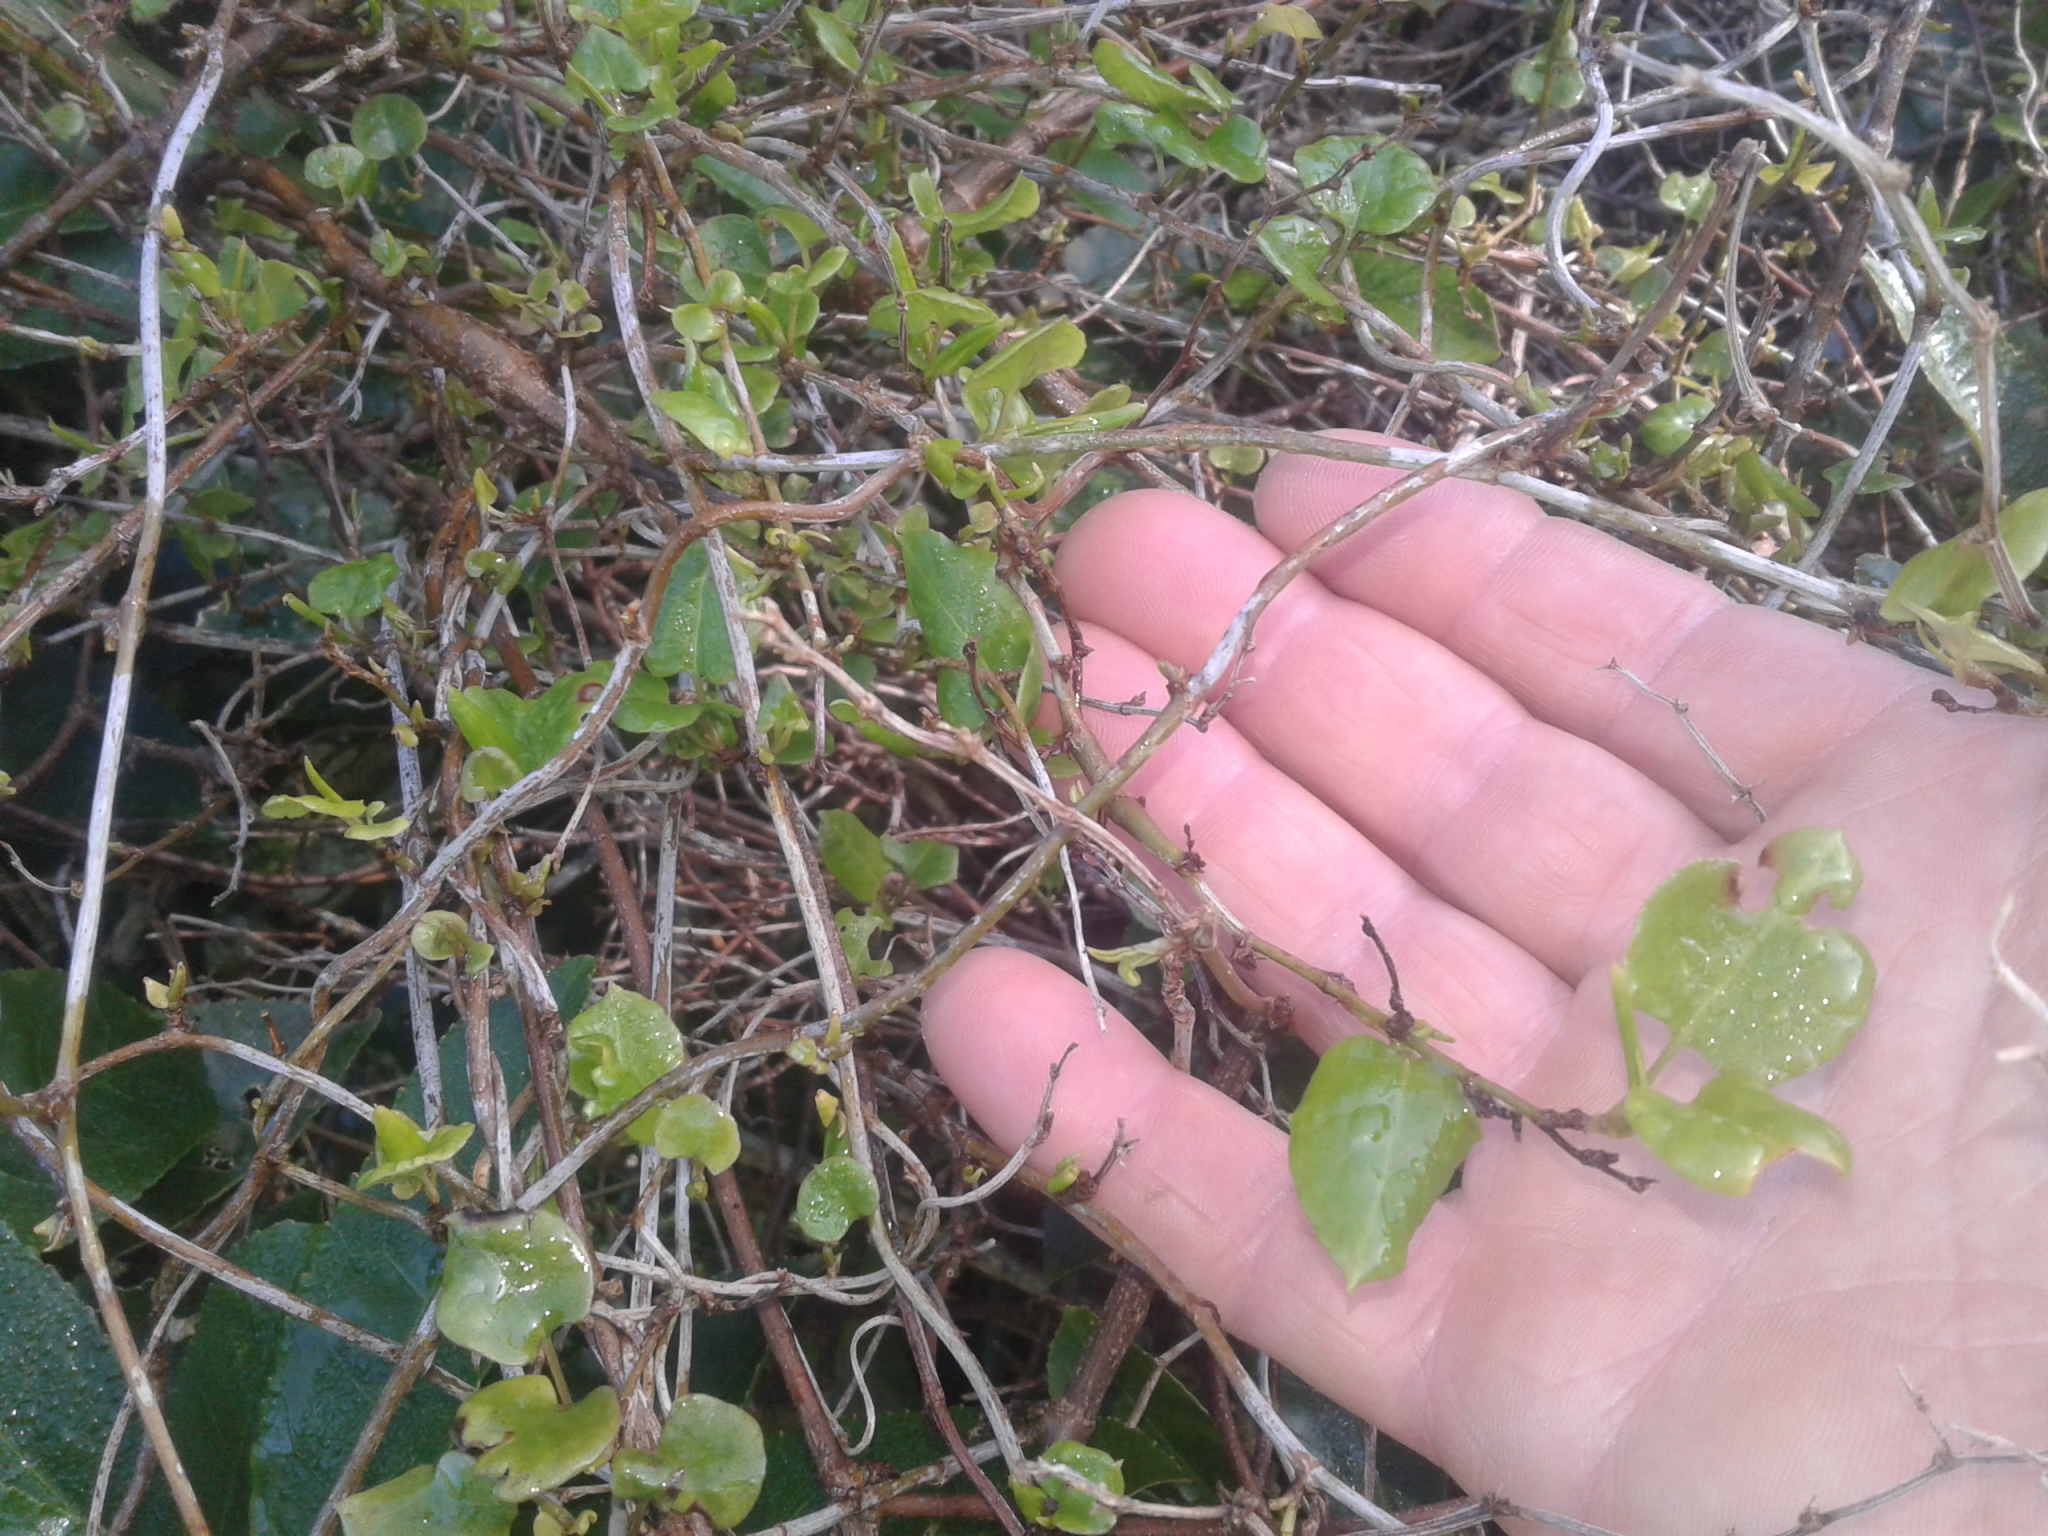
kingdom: Plantae
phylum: Tracheophyta
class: Magnoliopsida
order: Caryophyllales
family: Polygonaceae
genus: Muehlenbeckia
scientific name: Muehlenbeckia
